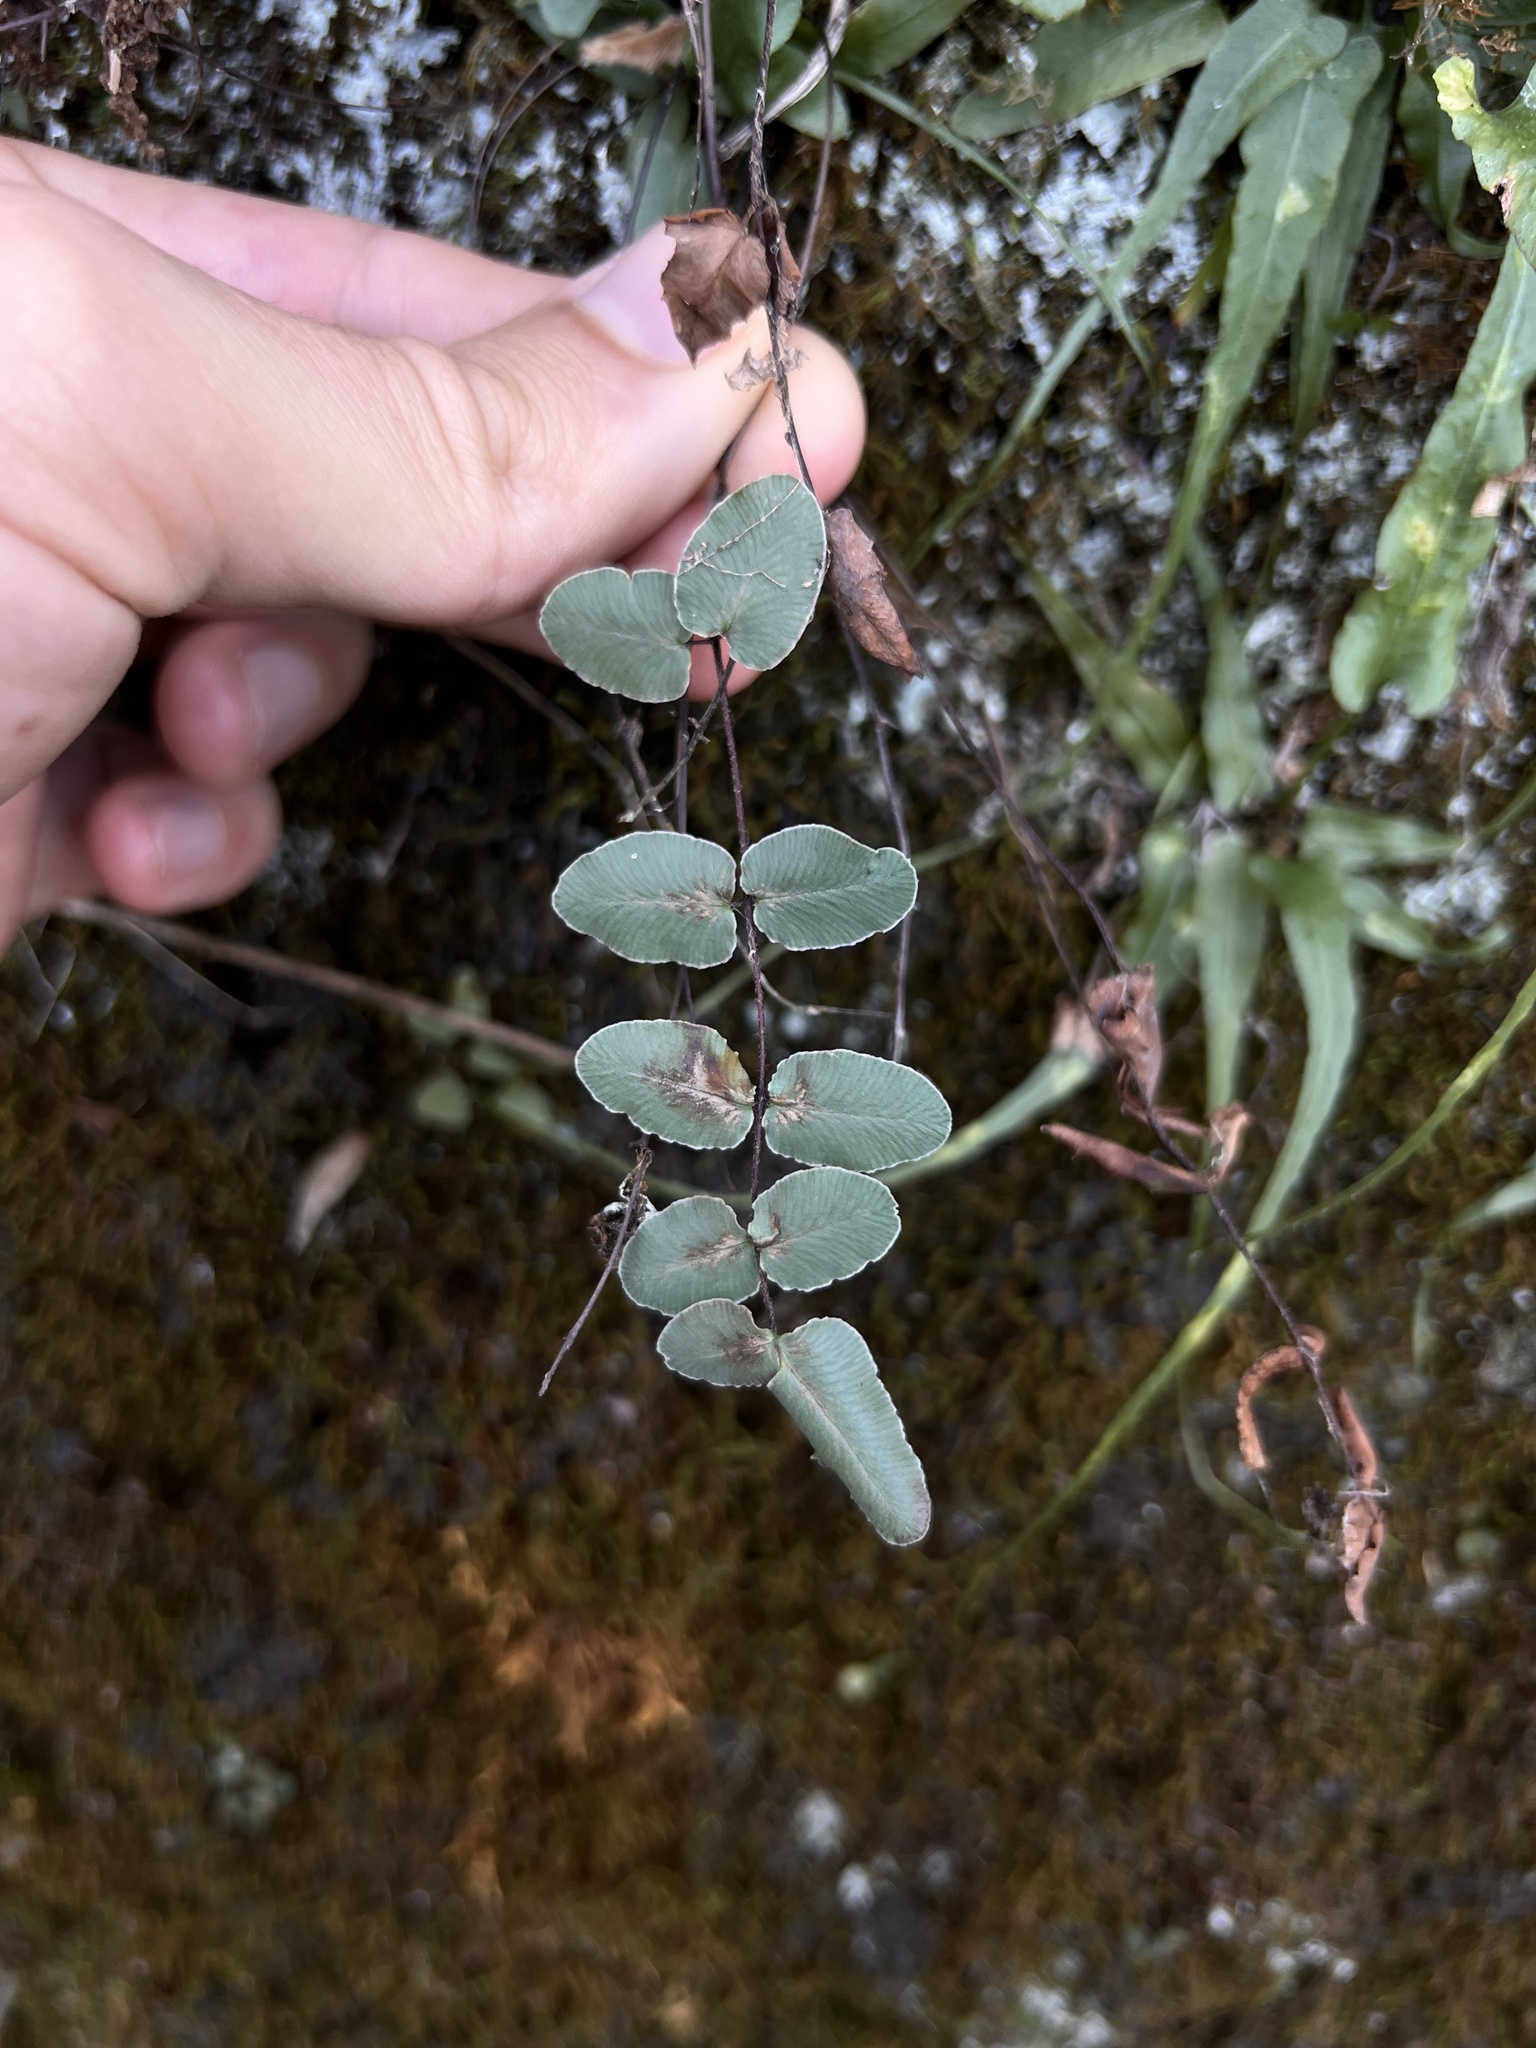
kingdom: Plantae
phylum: Tracheophyta
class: Polypodiopsida
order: Polypodiales
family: Pteridaceae
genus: Pellaea
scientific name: Pellaea atropurpurea
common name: Hairy cliffbrake
